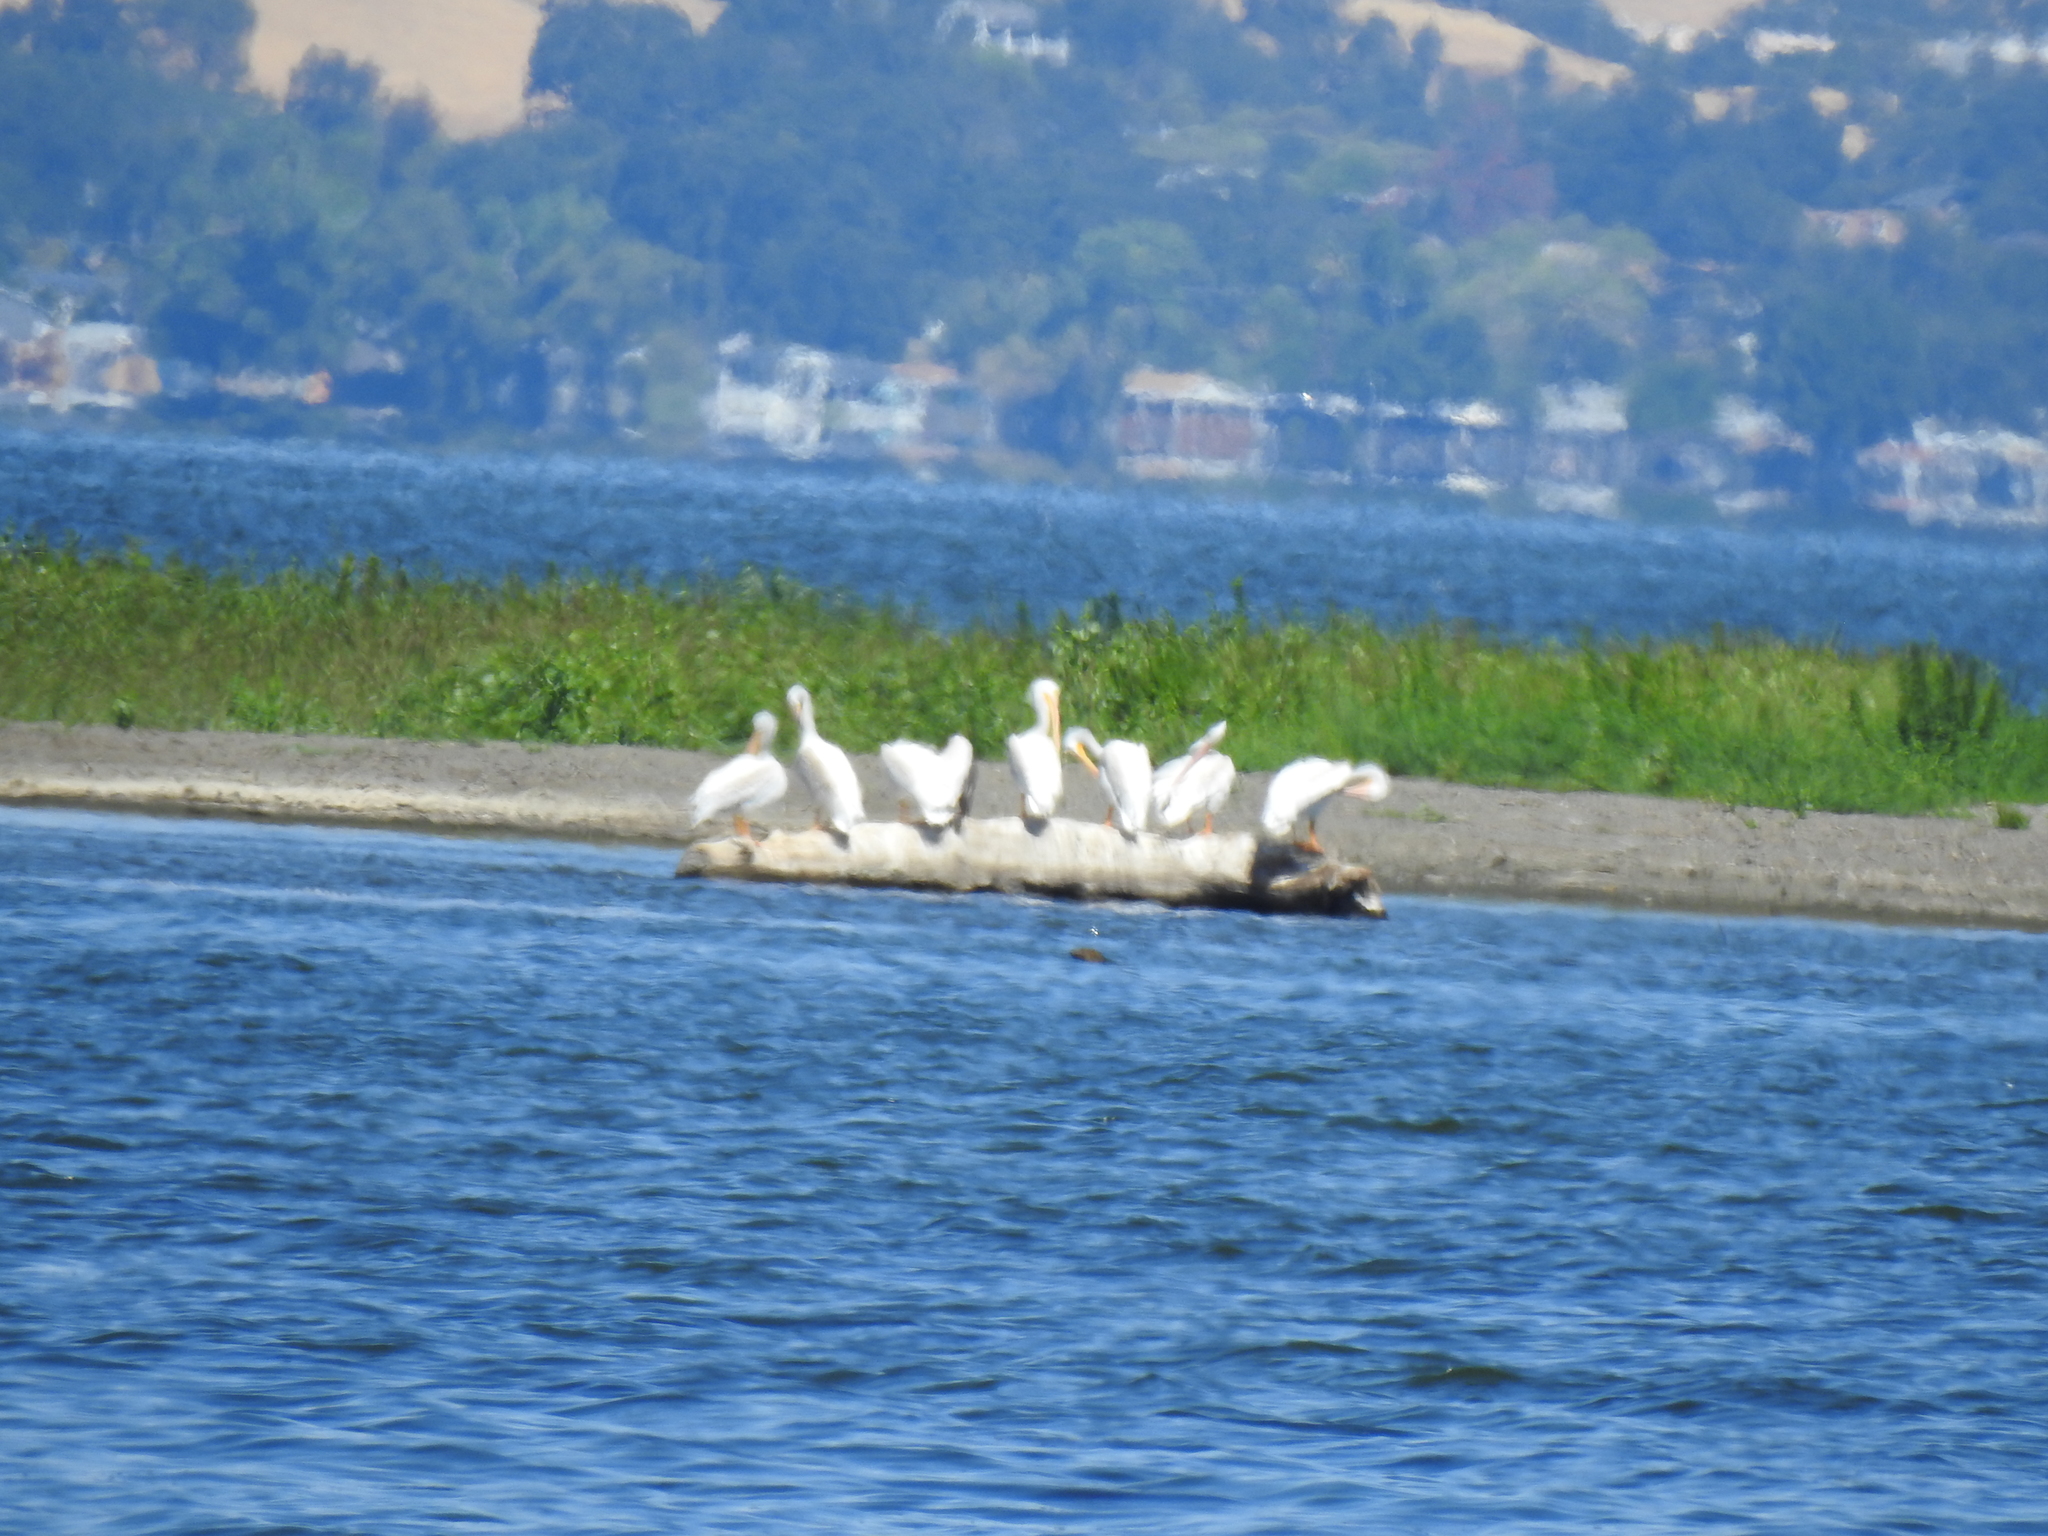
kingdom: Animalia
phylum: Chordata
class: Aves
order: Pelecaniformes
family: Pelecanidae
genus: Pelecanus
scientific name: Pelecanus erythrorhynchos
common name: American white pelican
